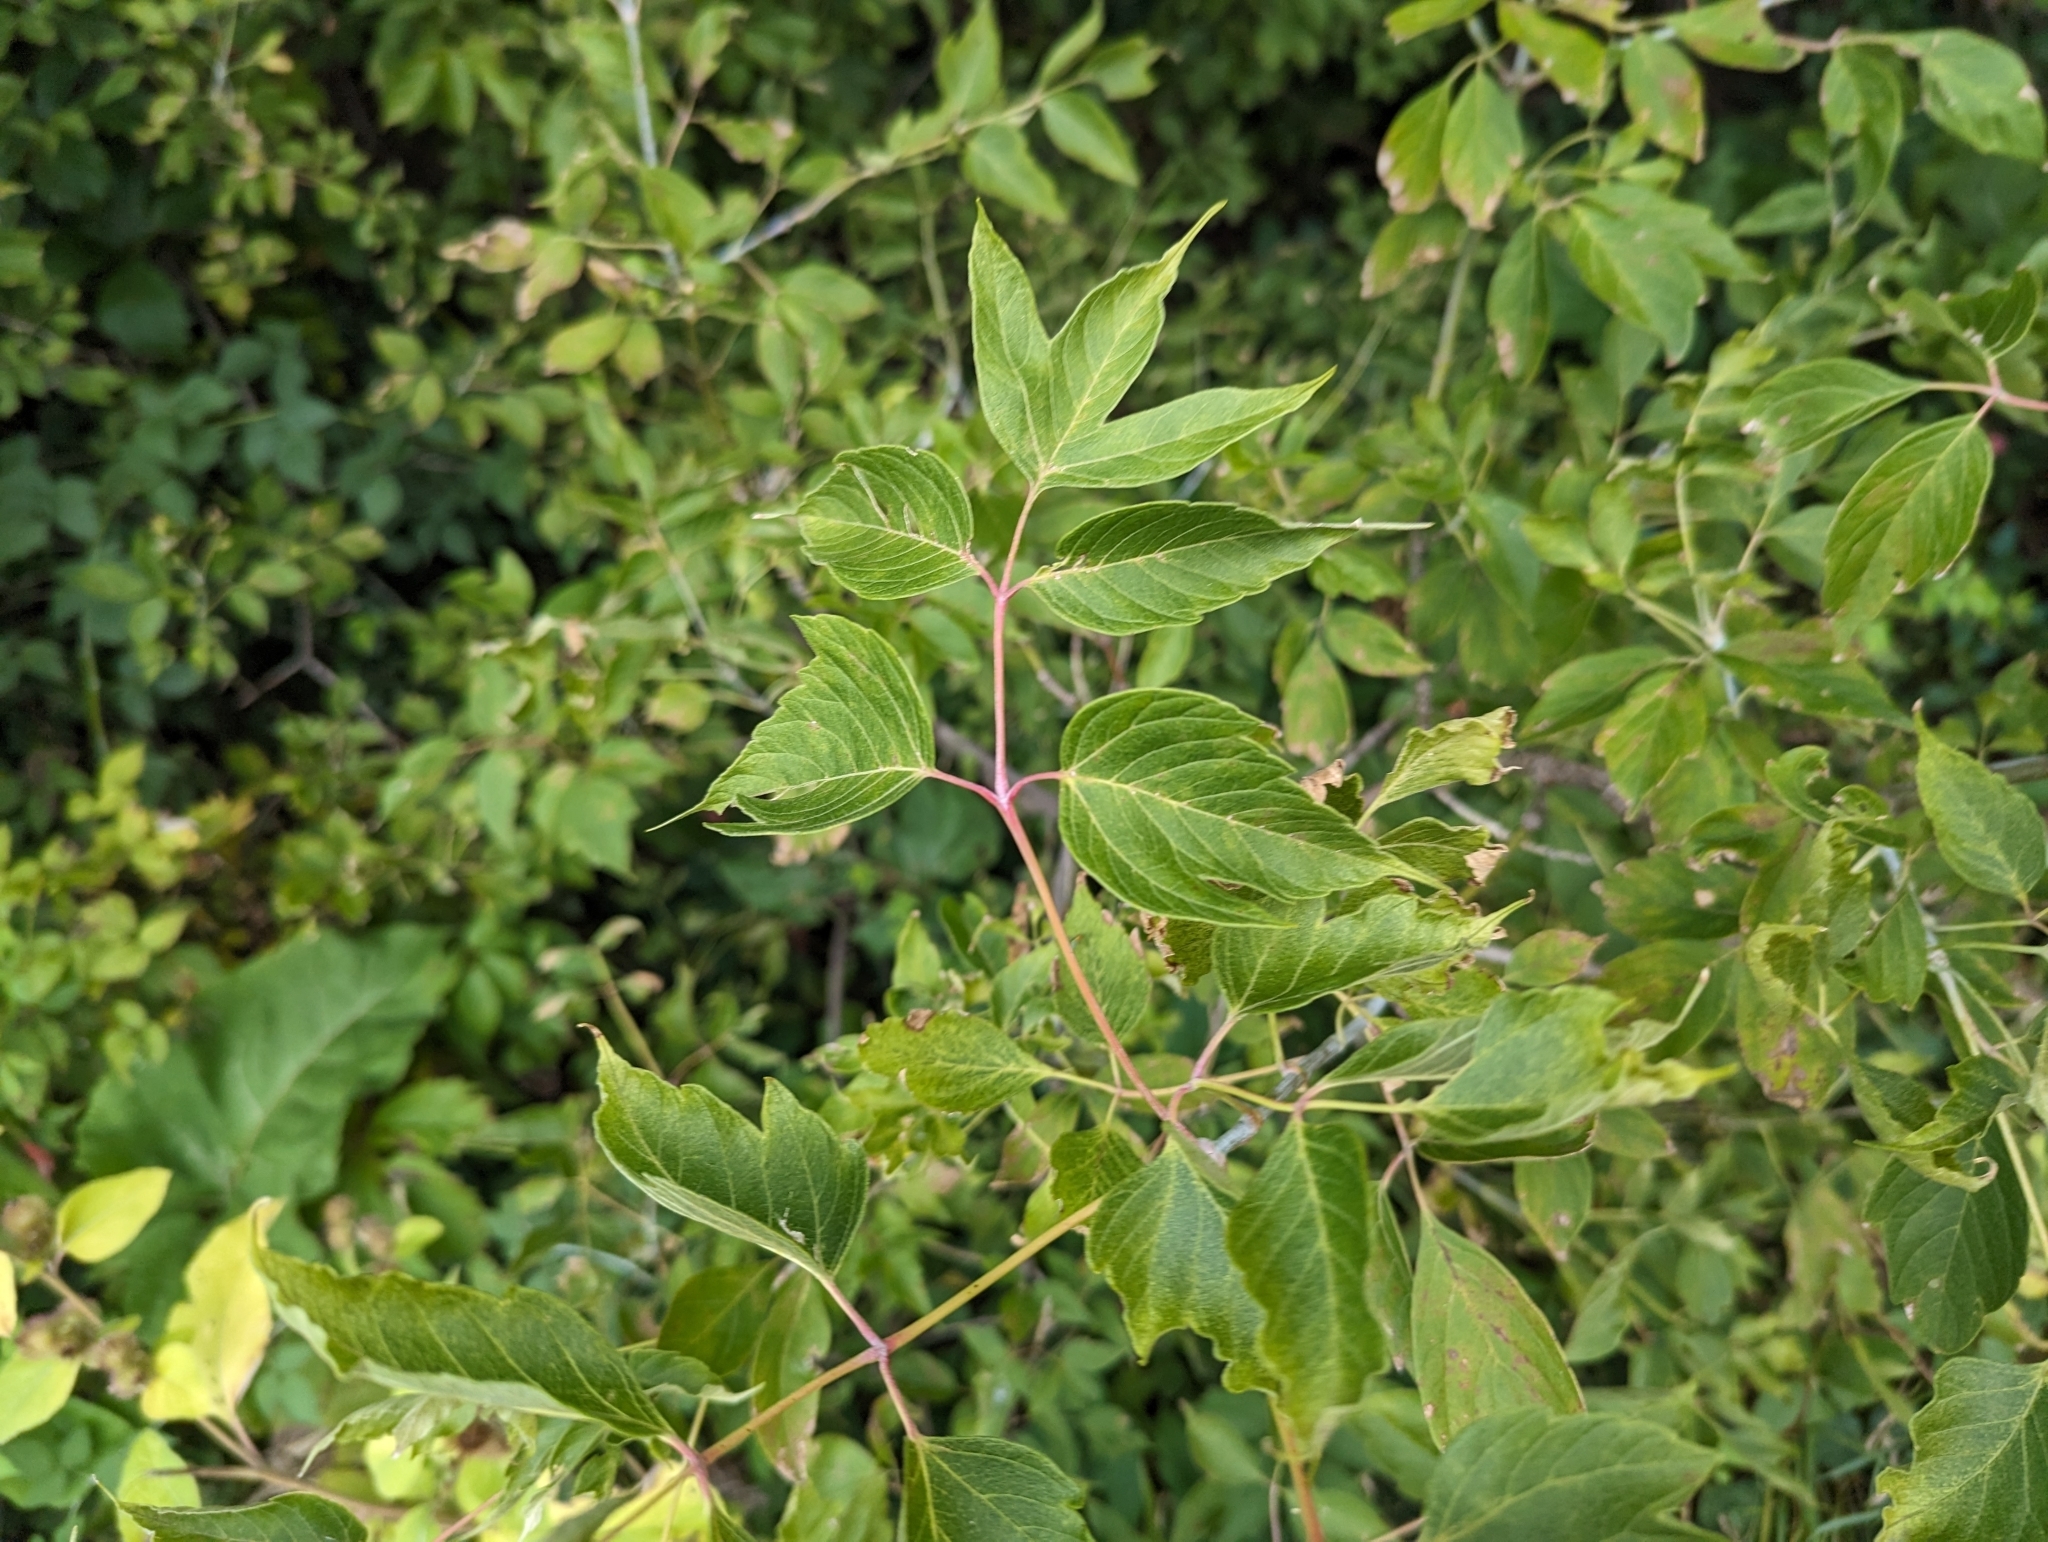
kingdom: Plantae
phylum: Tracheophyta
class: Magnoliopsida
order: Sapindales
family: Sapindaceae
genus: Acer
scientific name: Acer negundo
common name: Ashleaf maple
